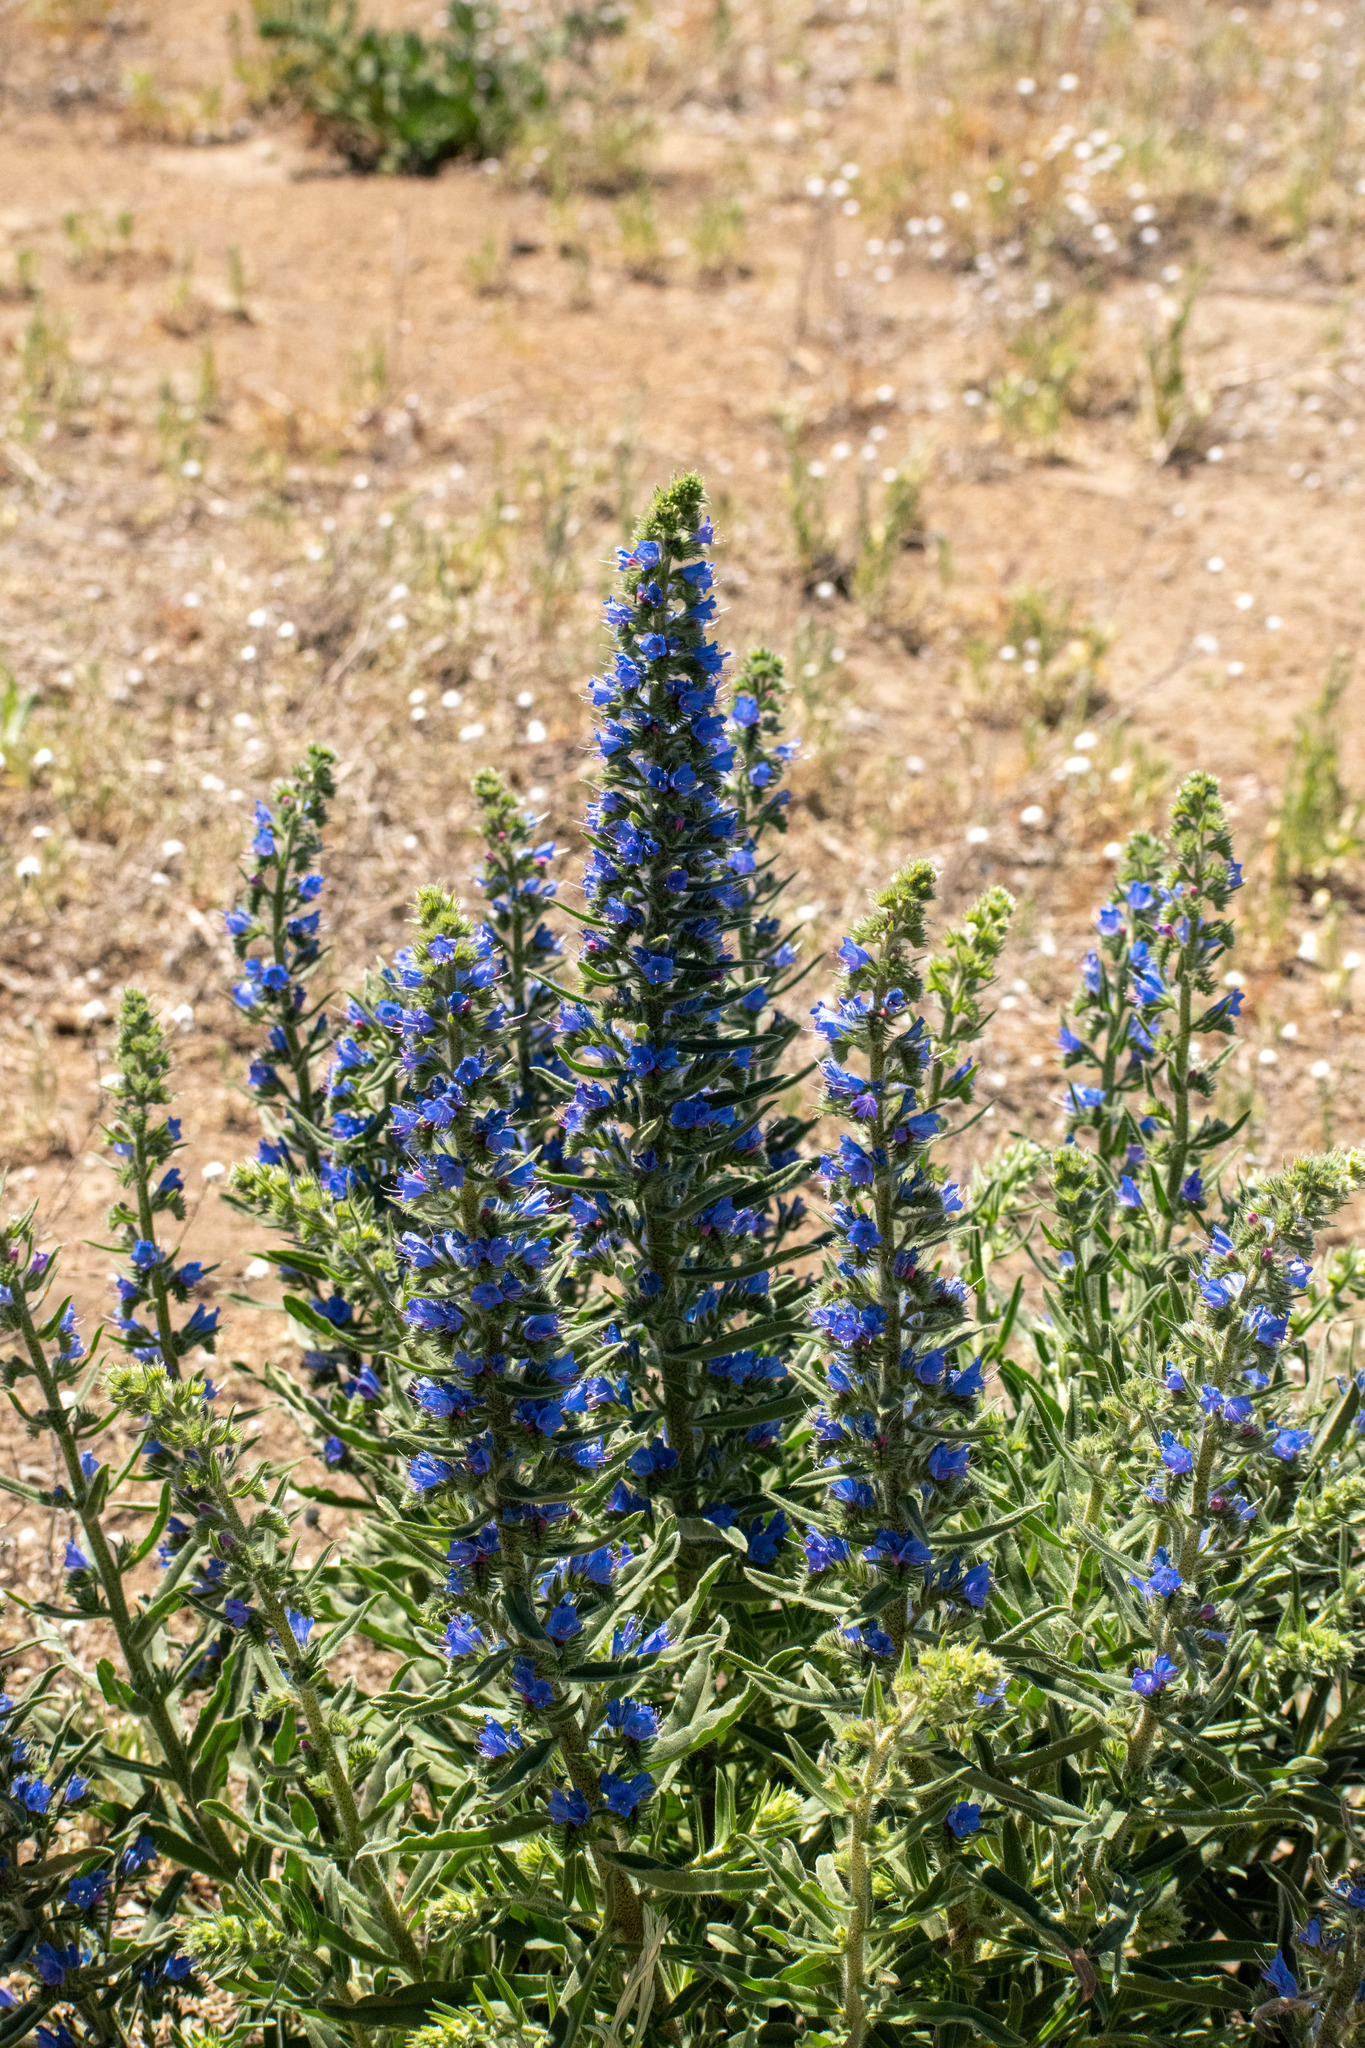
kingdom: Plantae
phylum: Tracheophyta
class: Magnoliopsida
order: Boraginales
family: Boraginaceae
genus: Echium
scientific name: Echium vulgare
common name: Common viper's bugloss
